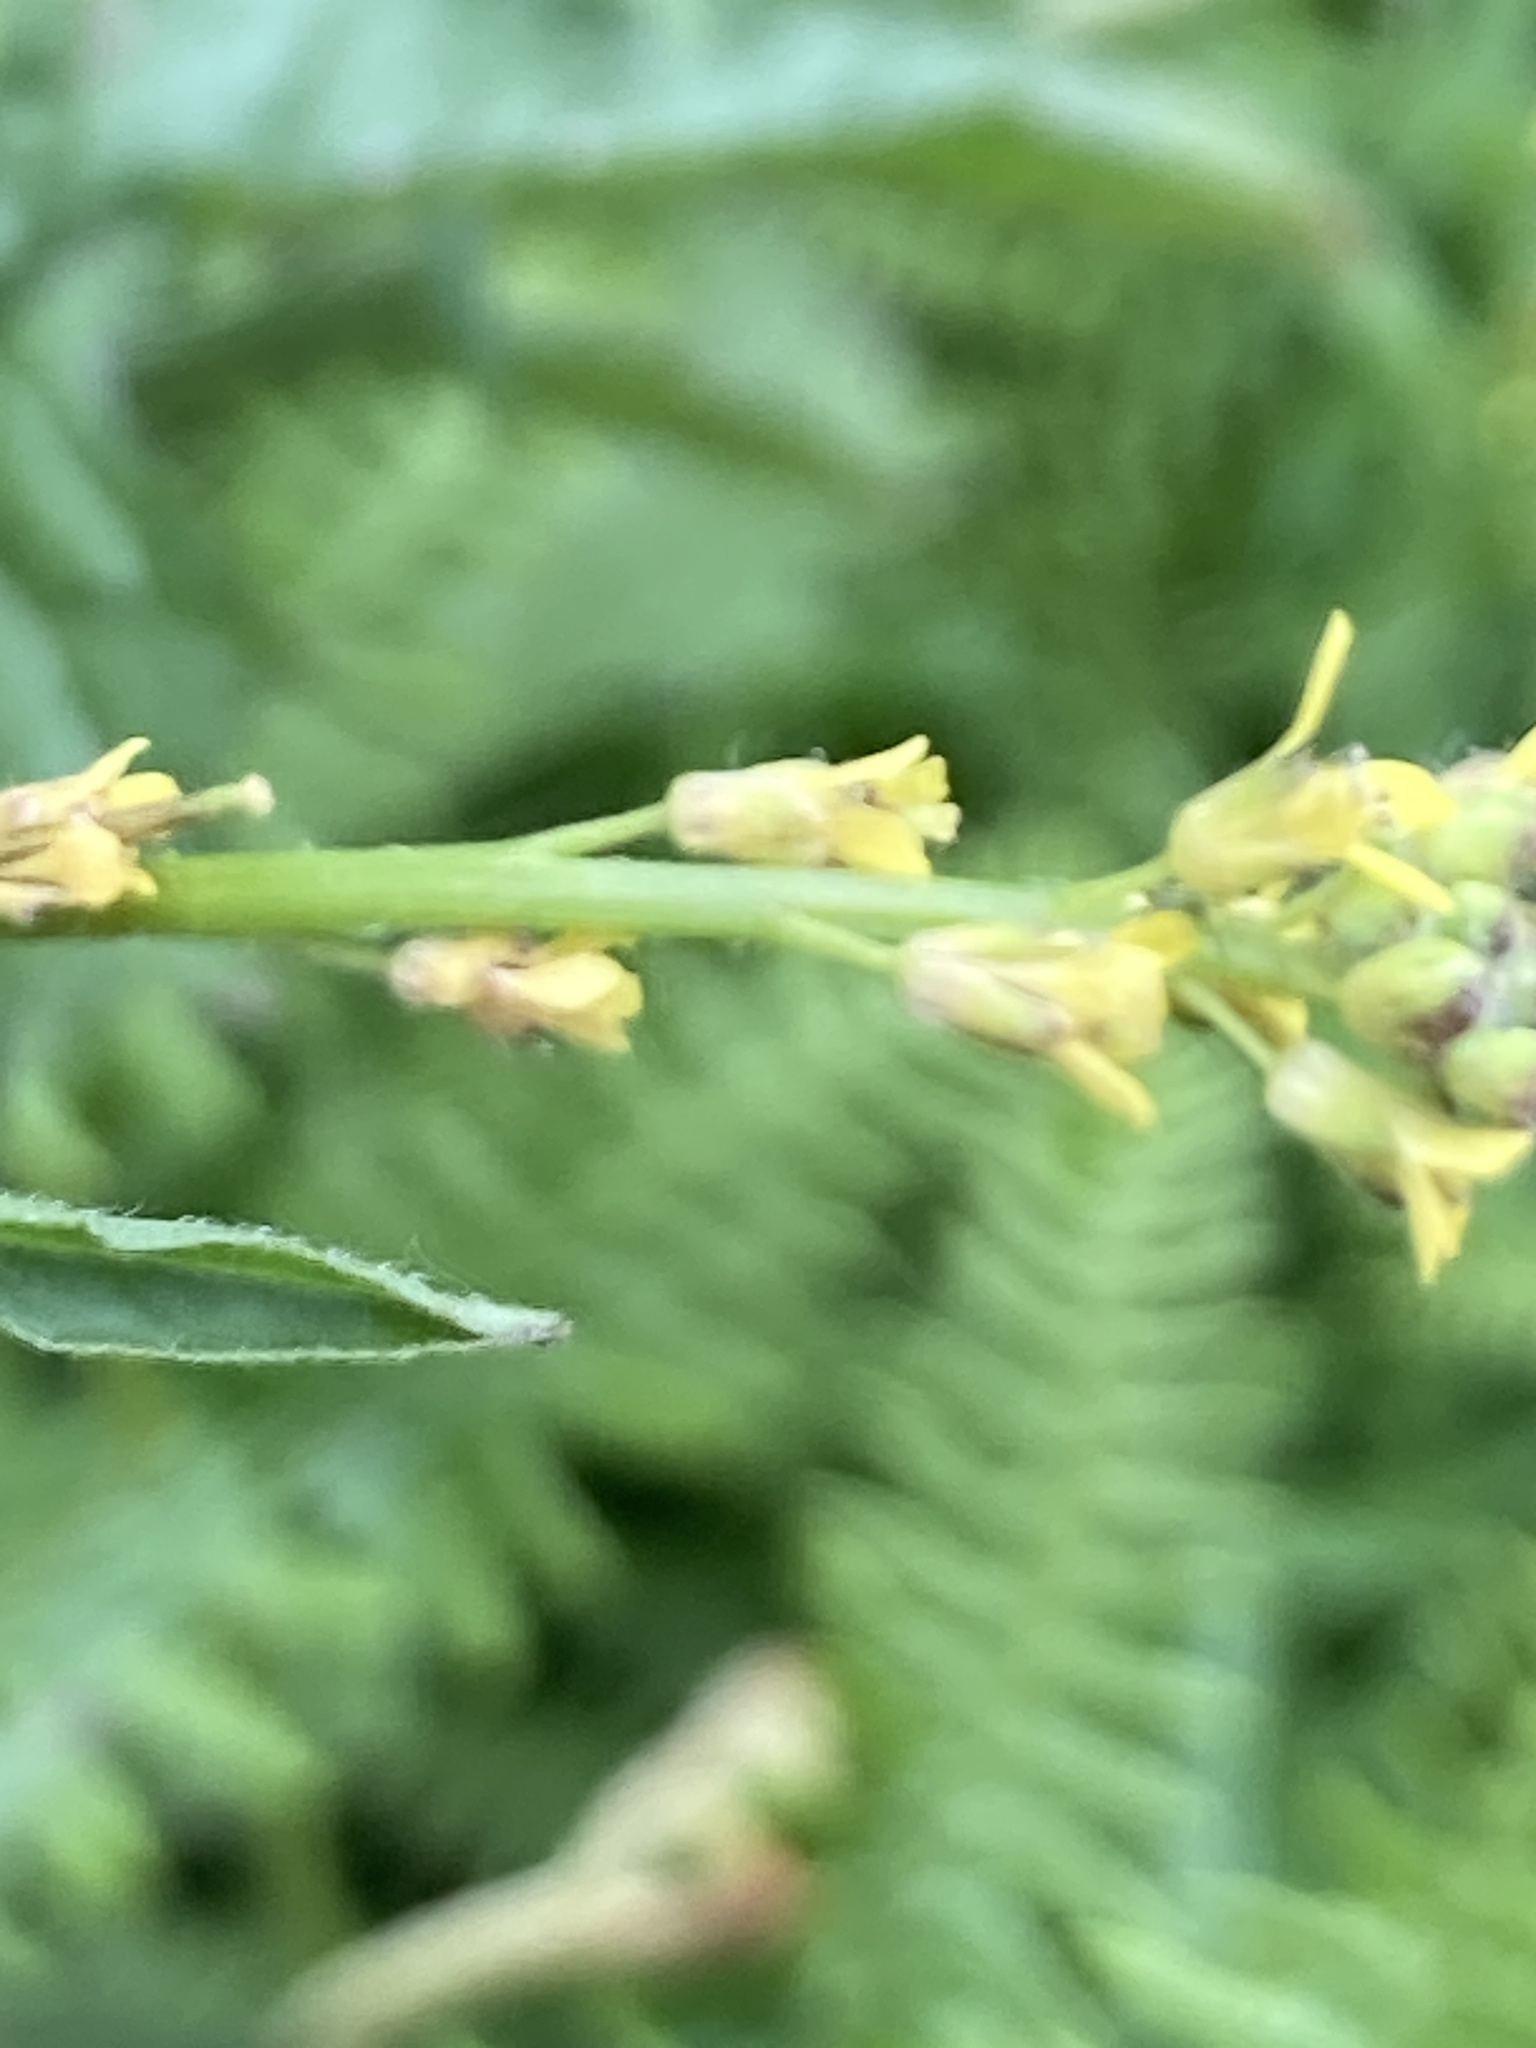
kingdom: Plantae
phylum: Tracheophyta
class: Magnoliopsida
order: Brassicales
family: Brassicaceae
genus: Sisymbrium
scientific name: Sisymbrium officinale
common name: Hedge mustard
